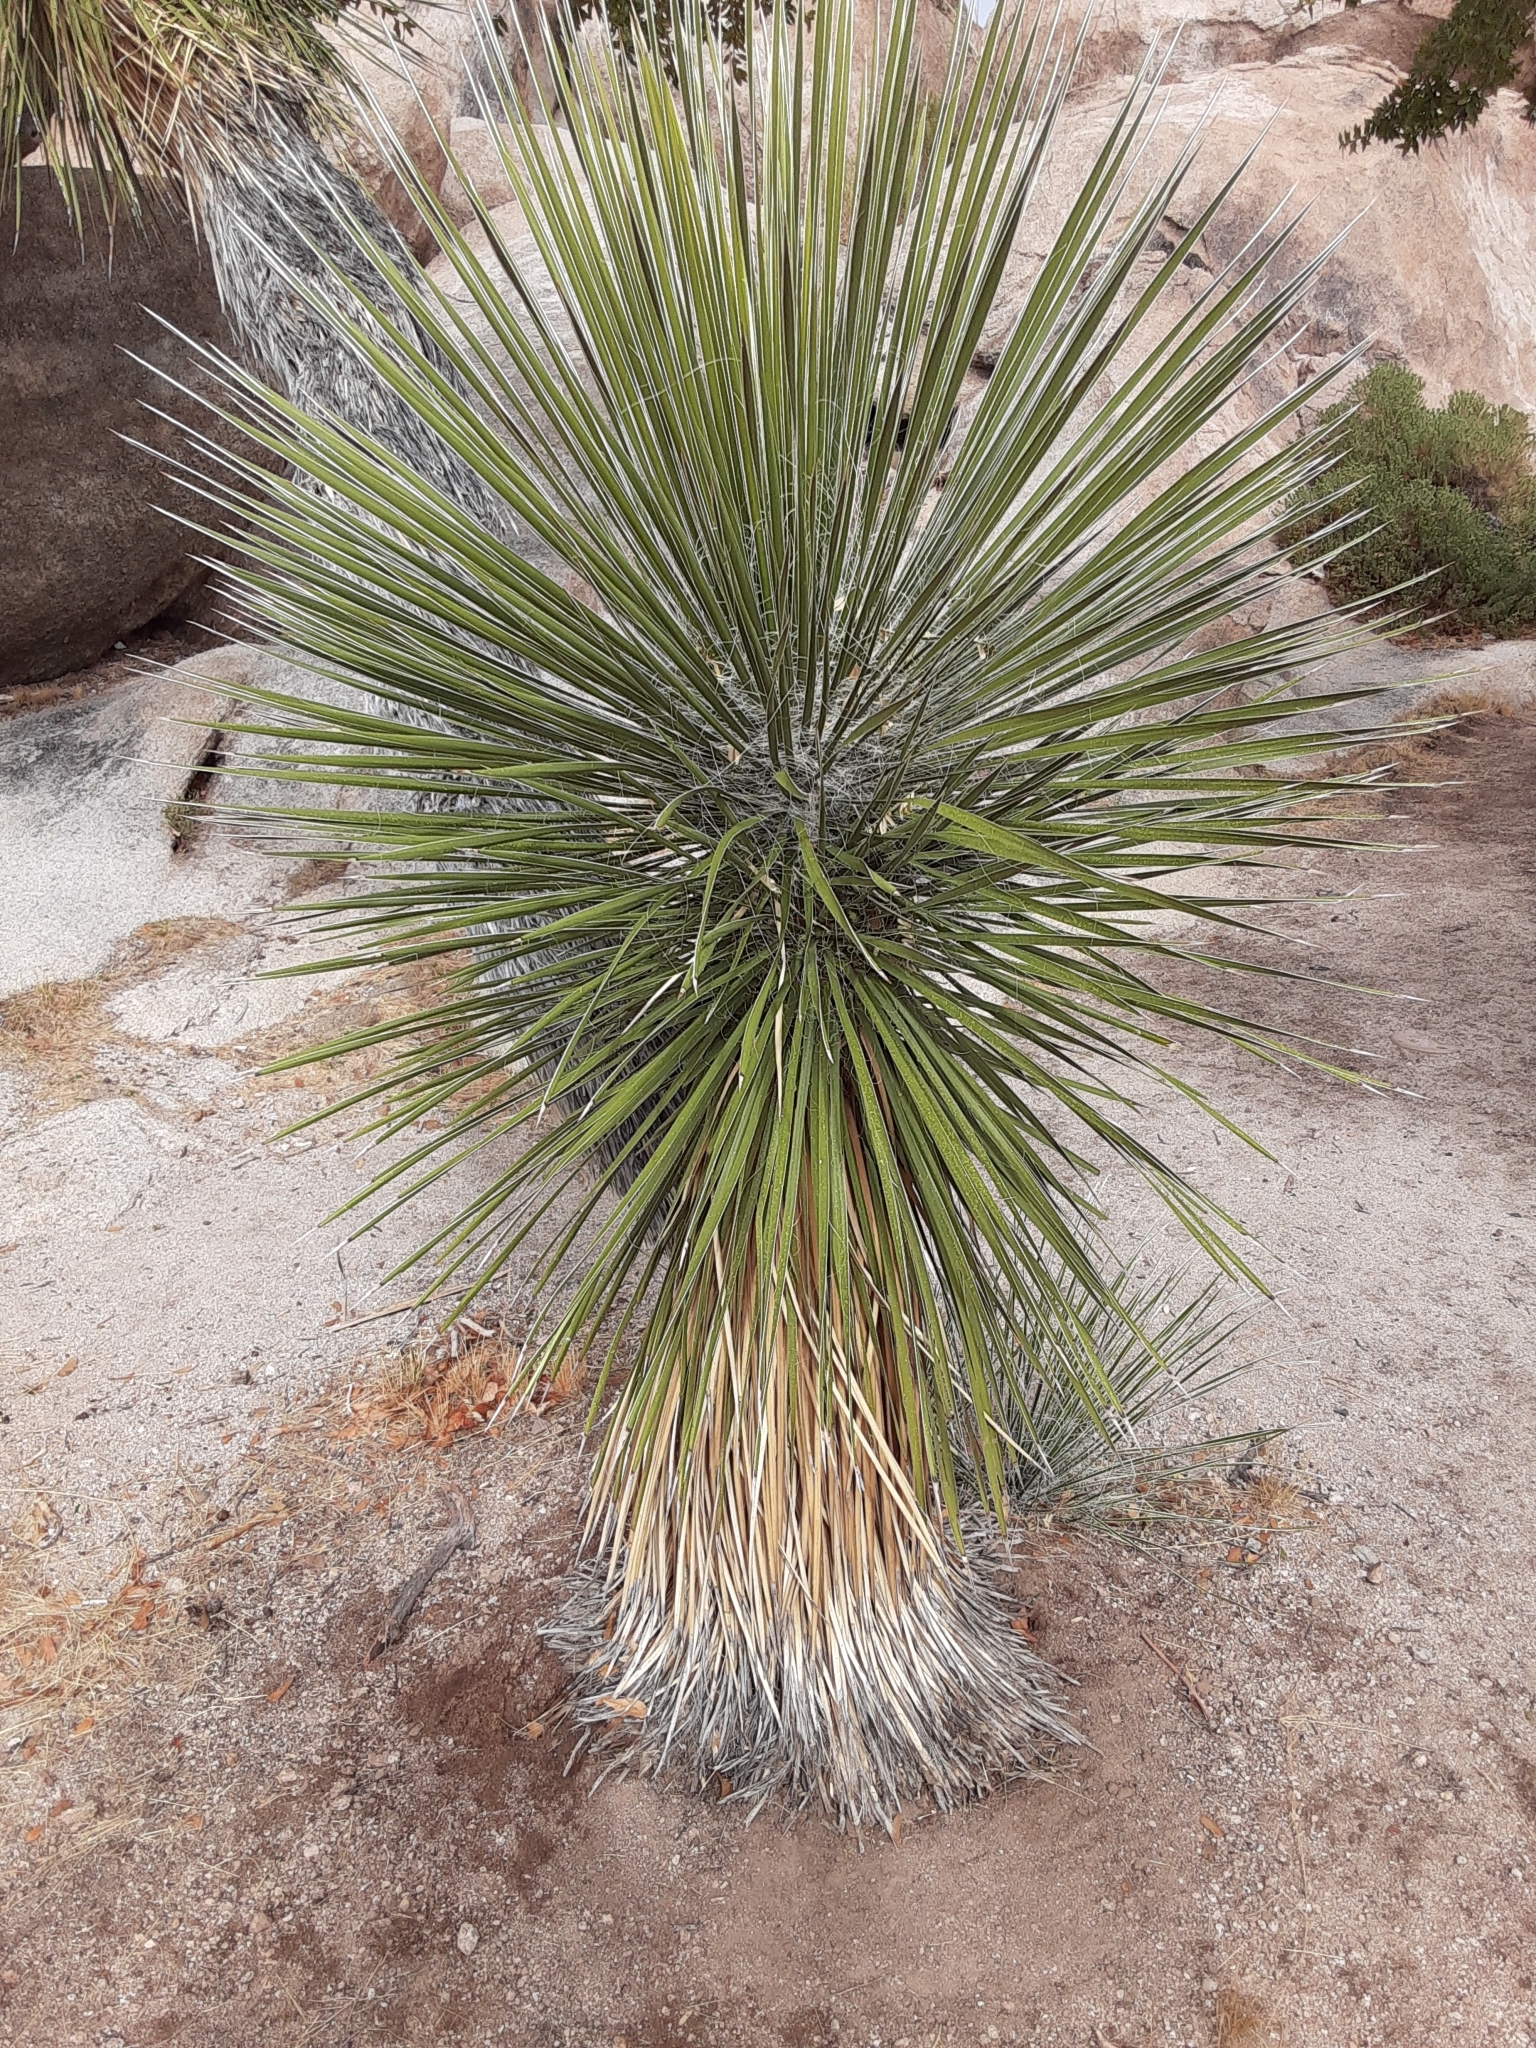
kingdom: Plantae
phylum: Tracheophyta
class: Liliopsida
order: Asparagales
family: Asparagaceae
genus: Yucca
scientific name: Yucca elata
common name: Palmella
